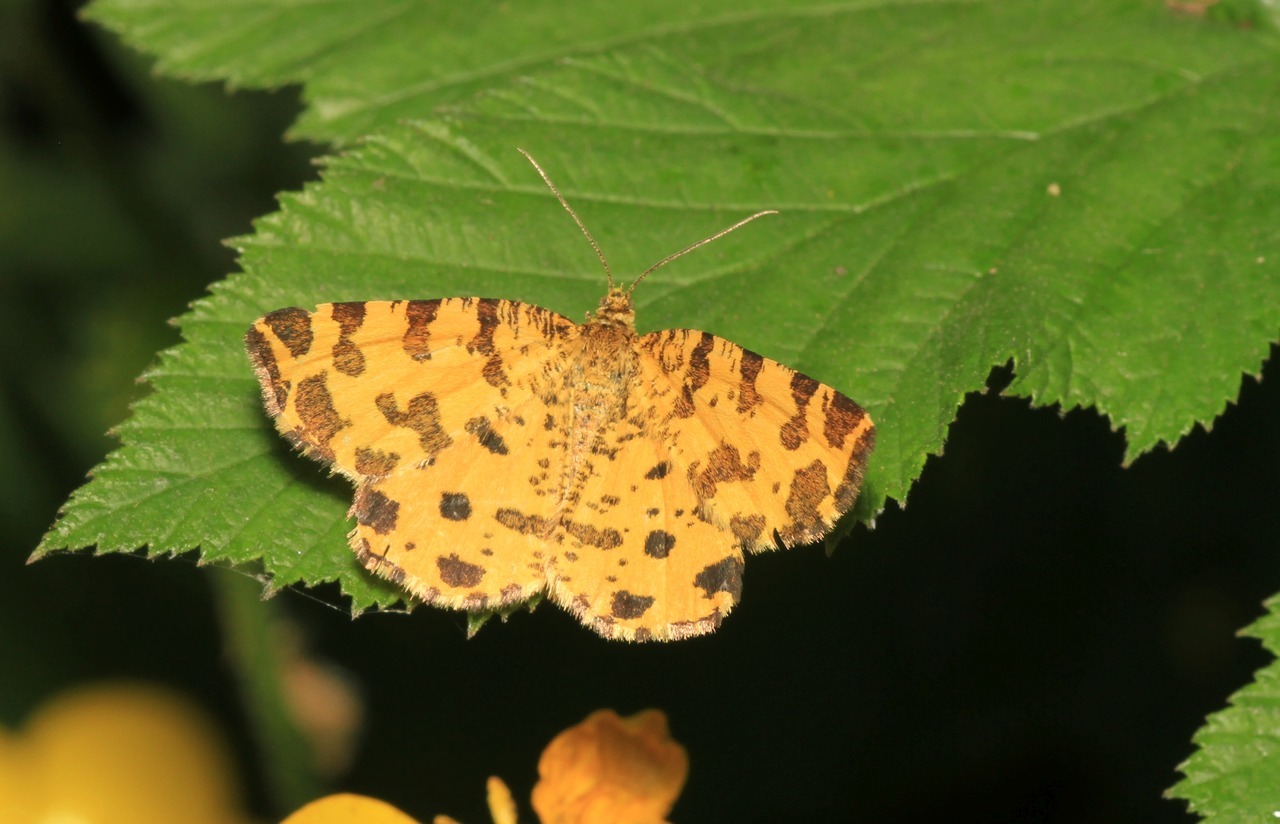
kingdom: Animalia
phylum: Arthropoda
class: Insecta
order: Lepidoptera
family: Geometridae
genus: Pseudopanthera
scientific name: Pseudopanthera macularia
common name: Speckled yellow
